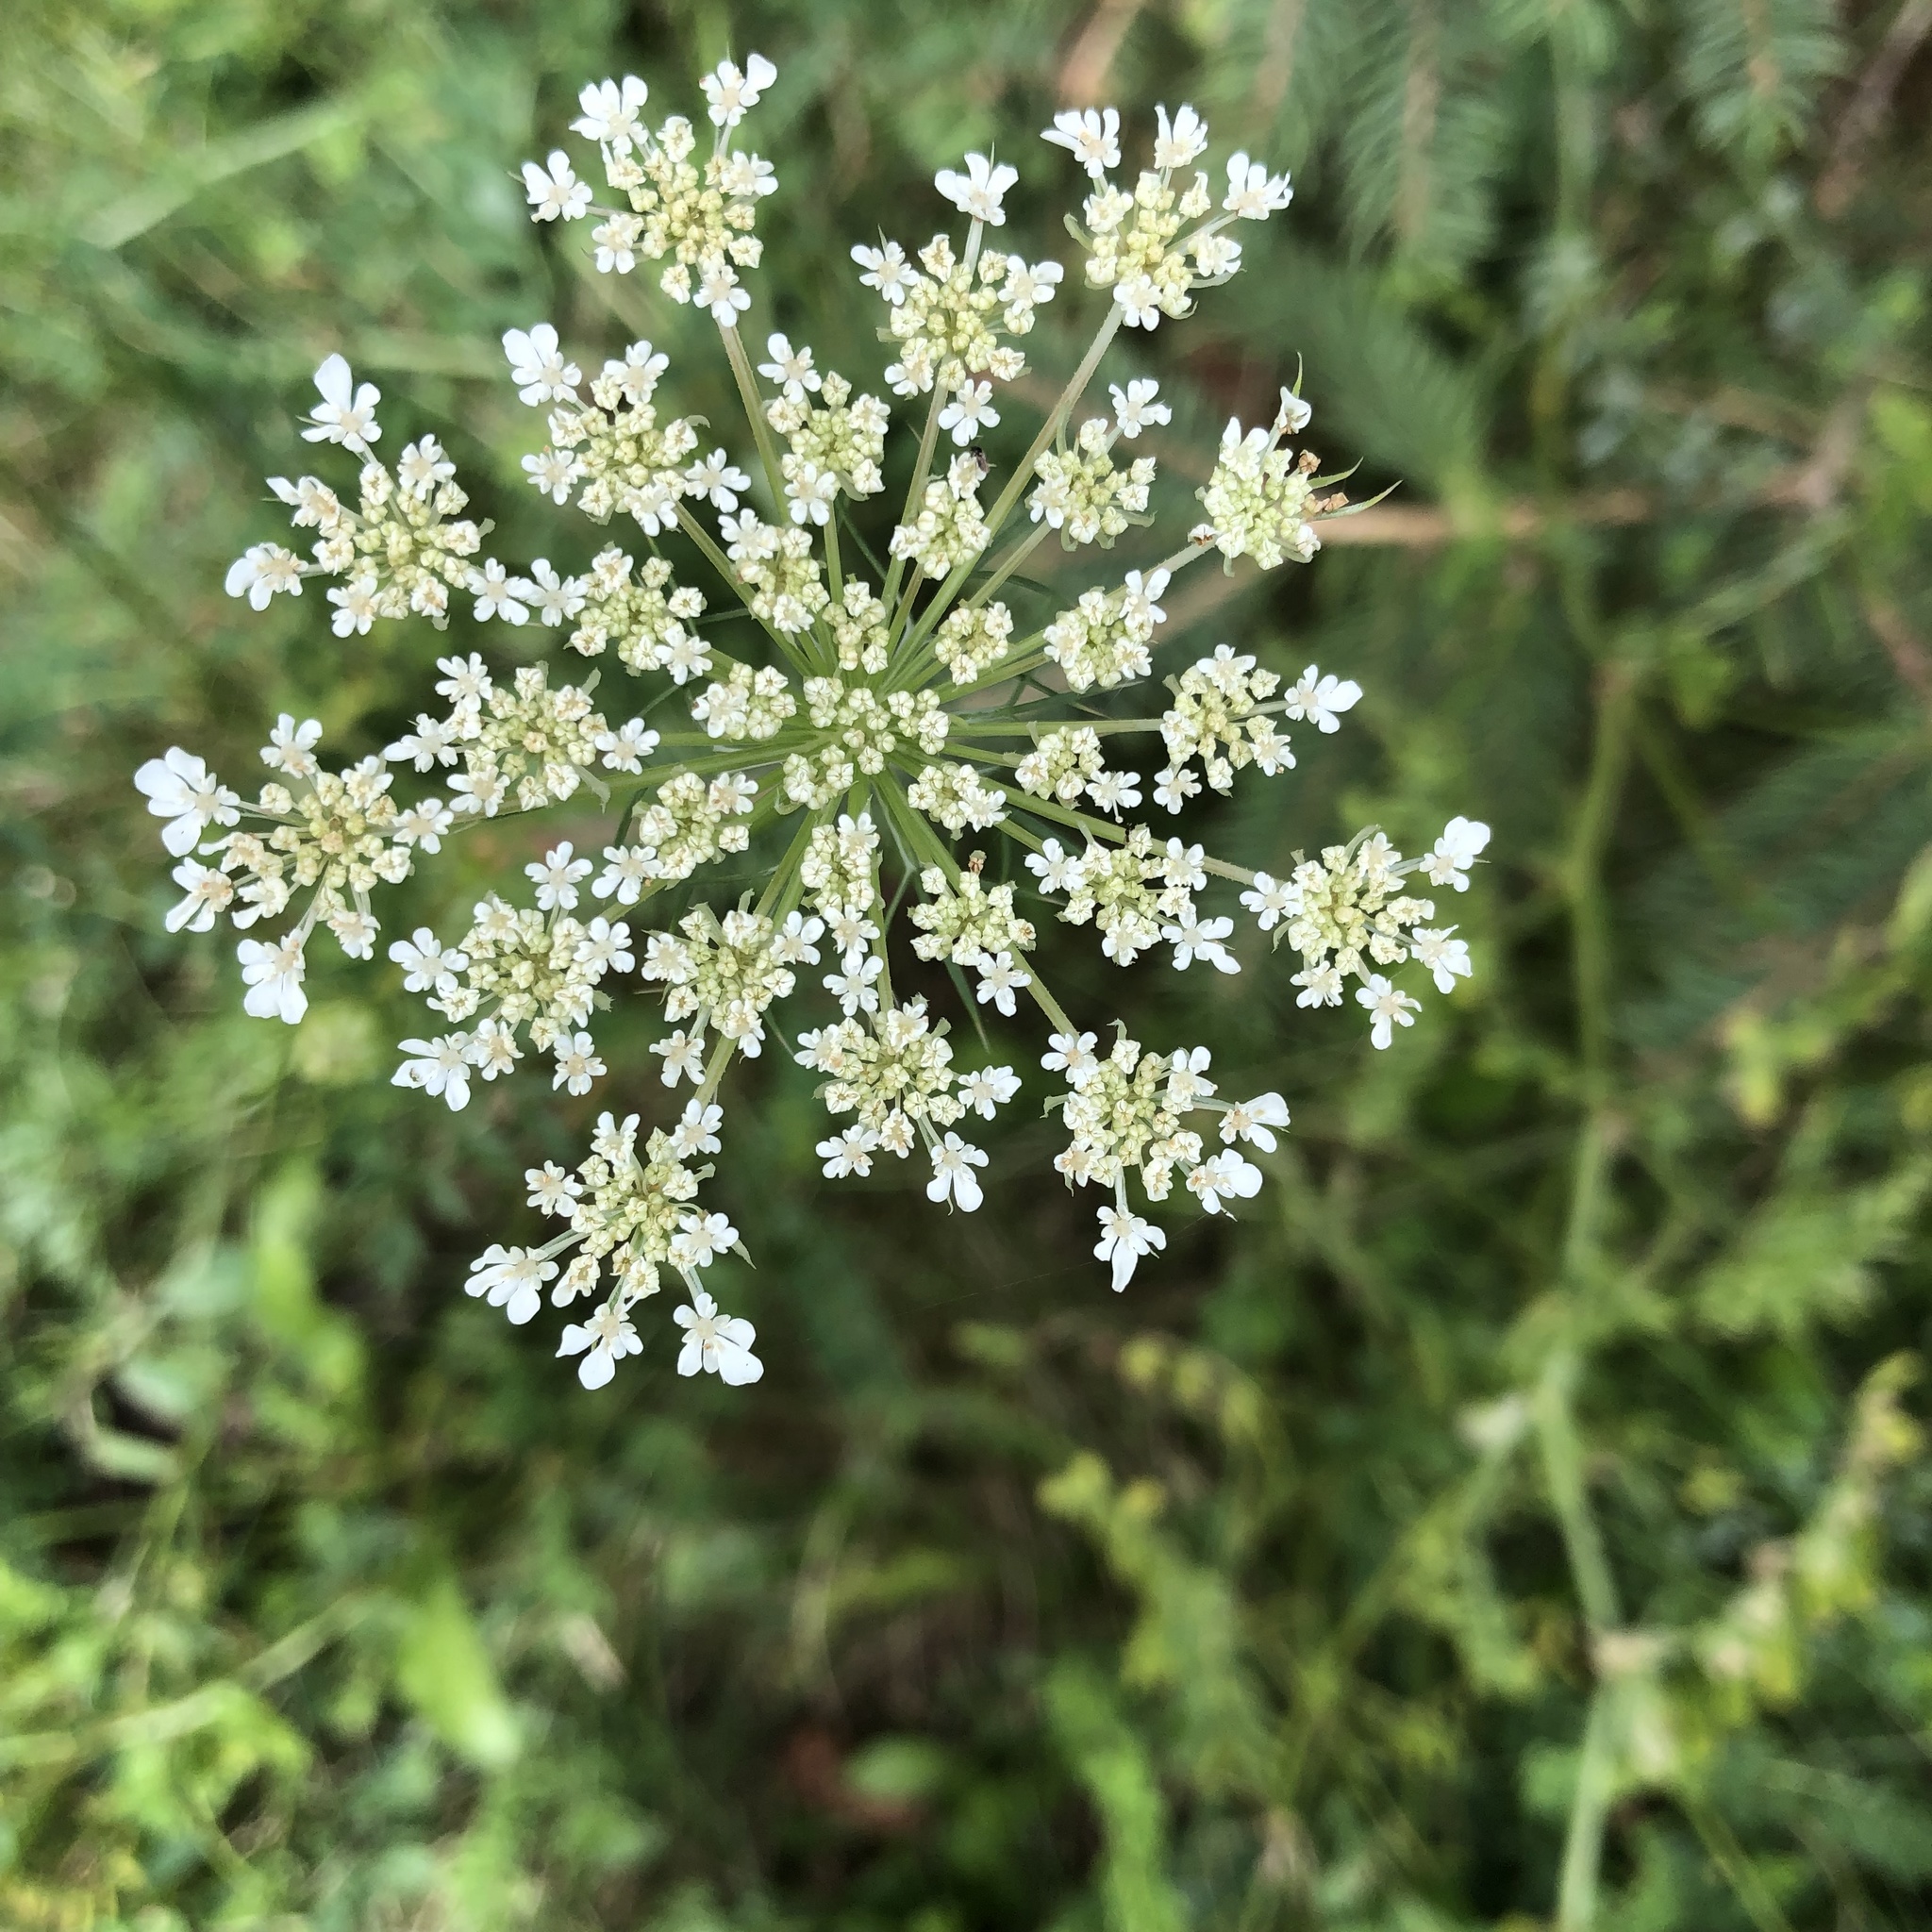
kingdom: Plantae
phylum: Tracheophyta
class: Magnoliopsida
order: Apiales
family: Apiaceae
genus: Daucus
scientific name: Daucus carota
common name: Wild carrot
